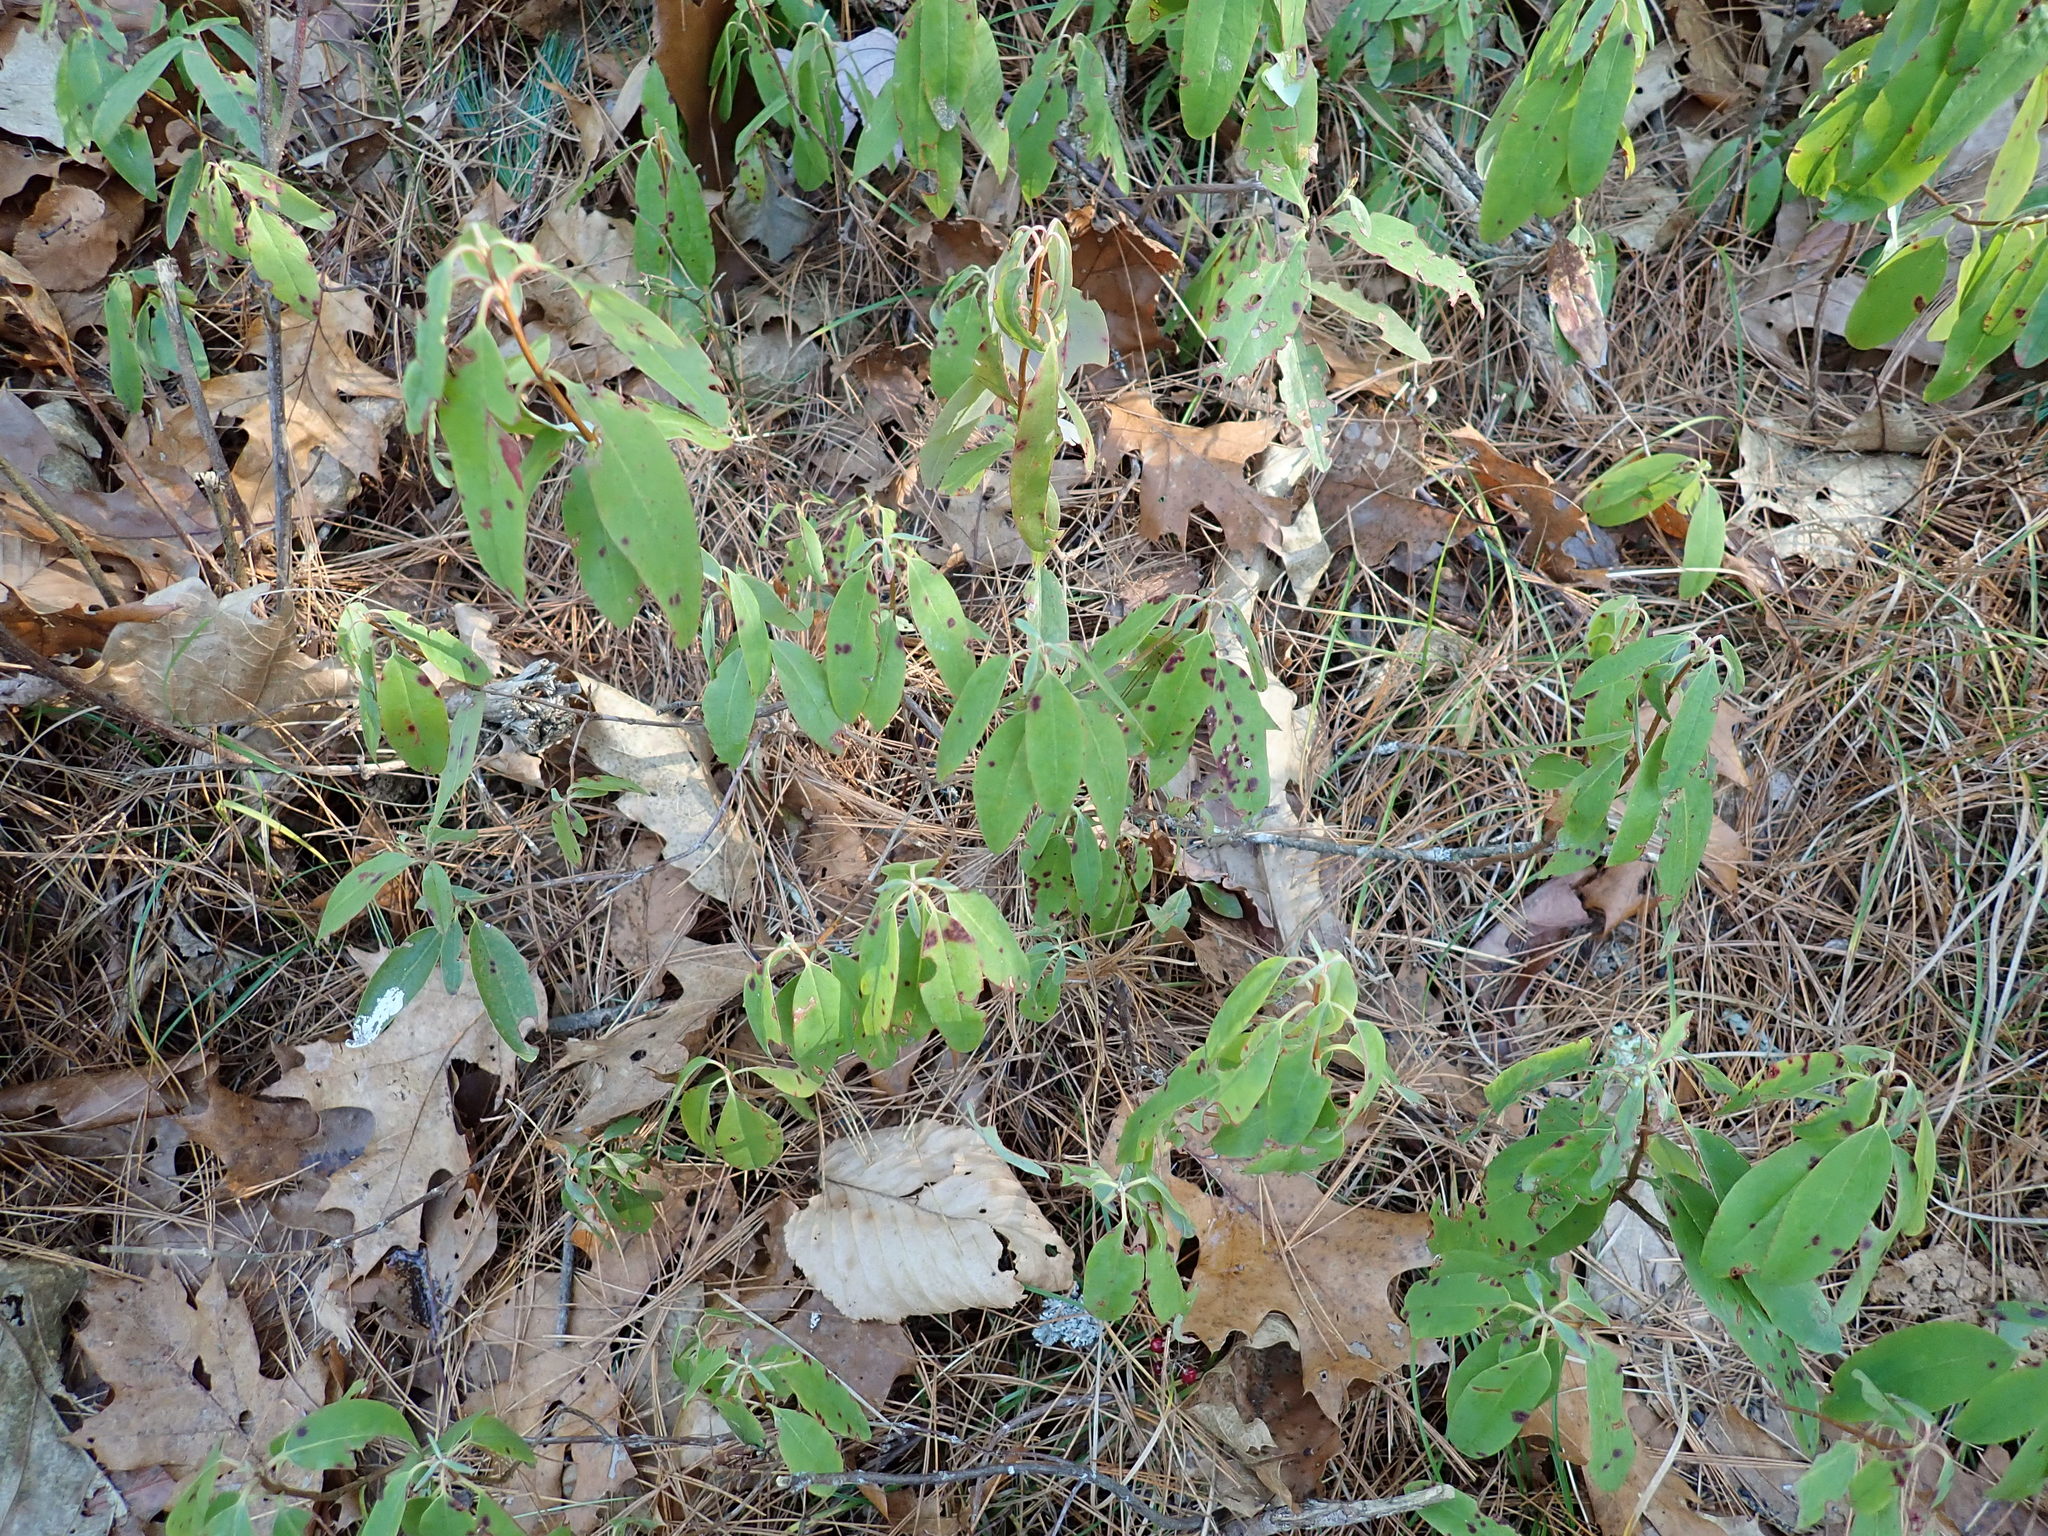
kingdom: Plantae
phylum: Tracheophyta
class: Magnoliopsida
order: Ericales
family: Ericaceae
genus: Kalmia
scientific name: Kalmia angustifolia
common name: Sheep-laurel
